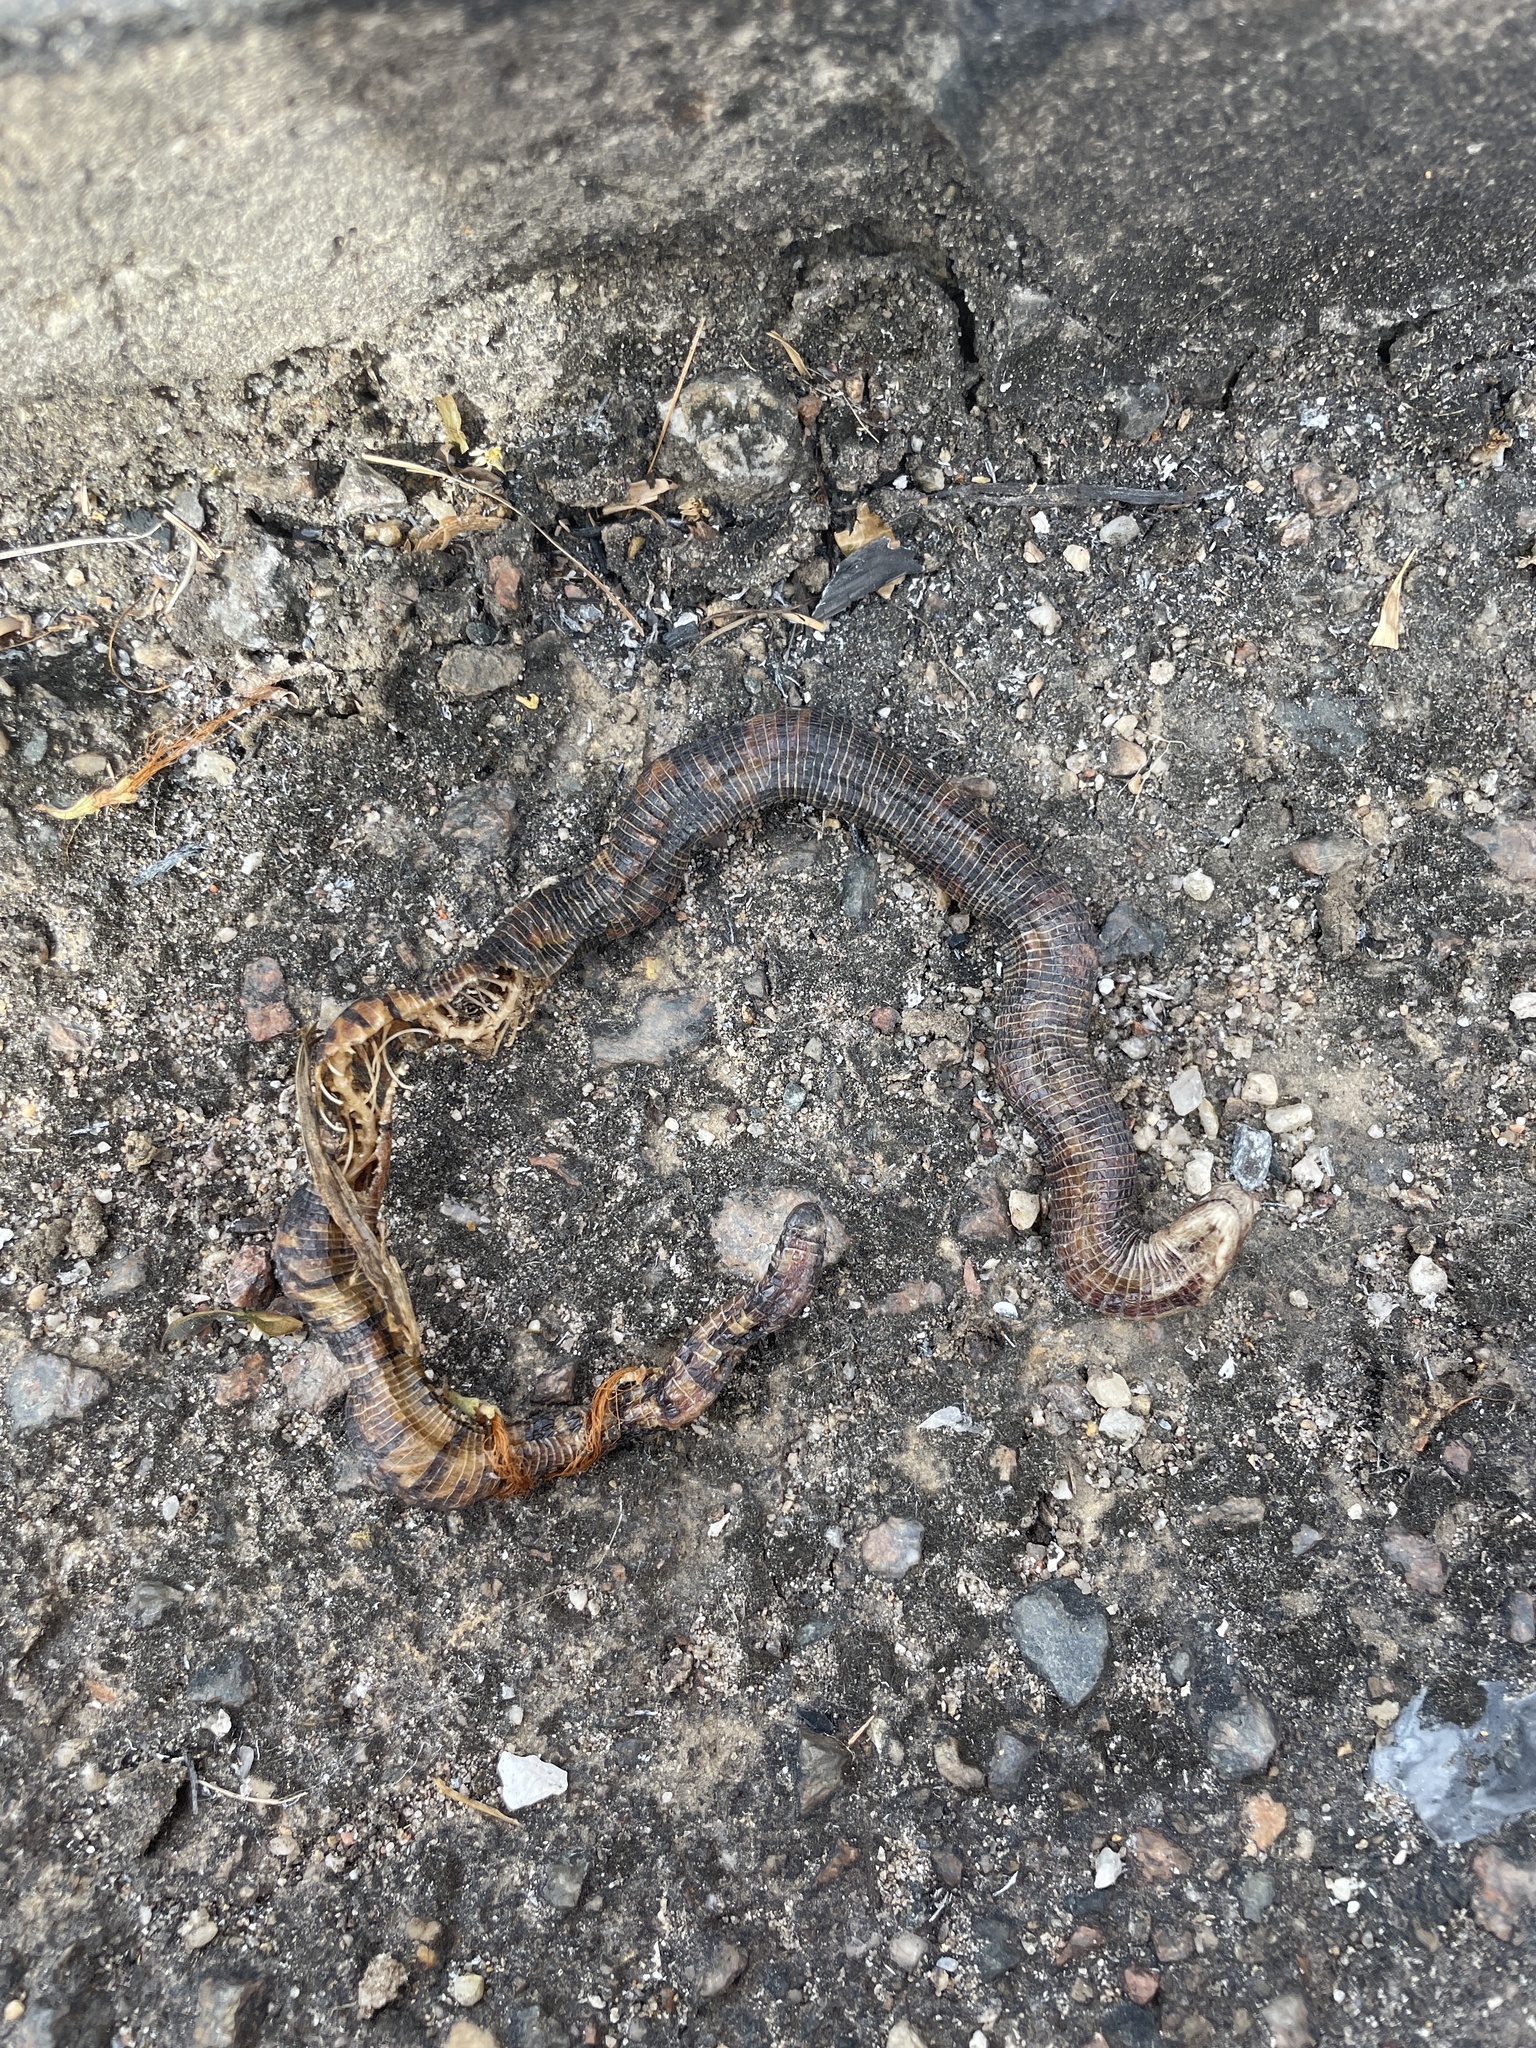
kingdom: Animalia
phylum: Chordata
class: Squamata
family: Amphisbaenidae
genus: Amphisbaena
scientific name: Amphisbaena fuliginosa
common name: Speckled worm lizard
